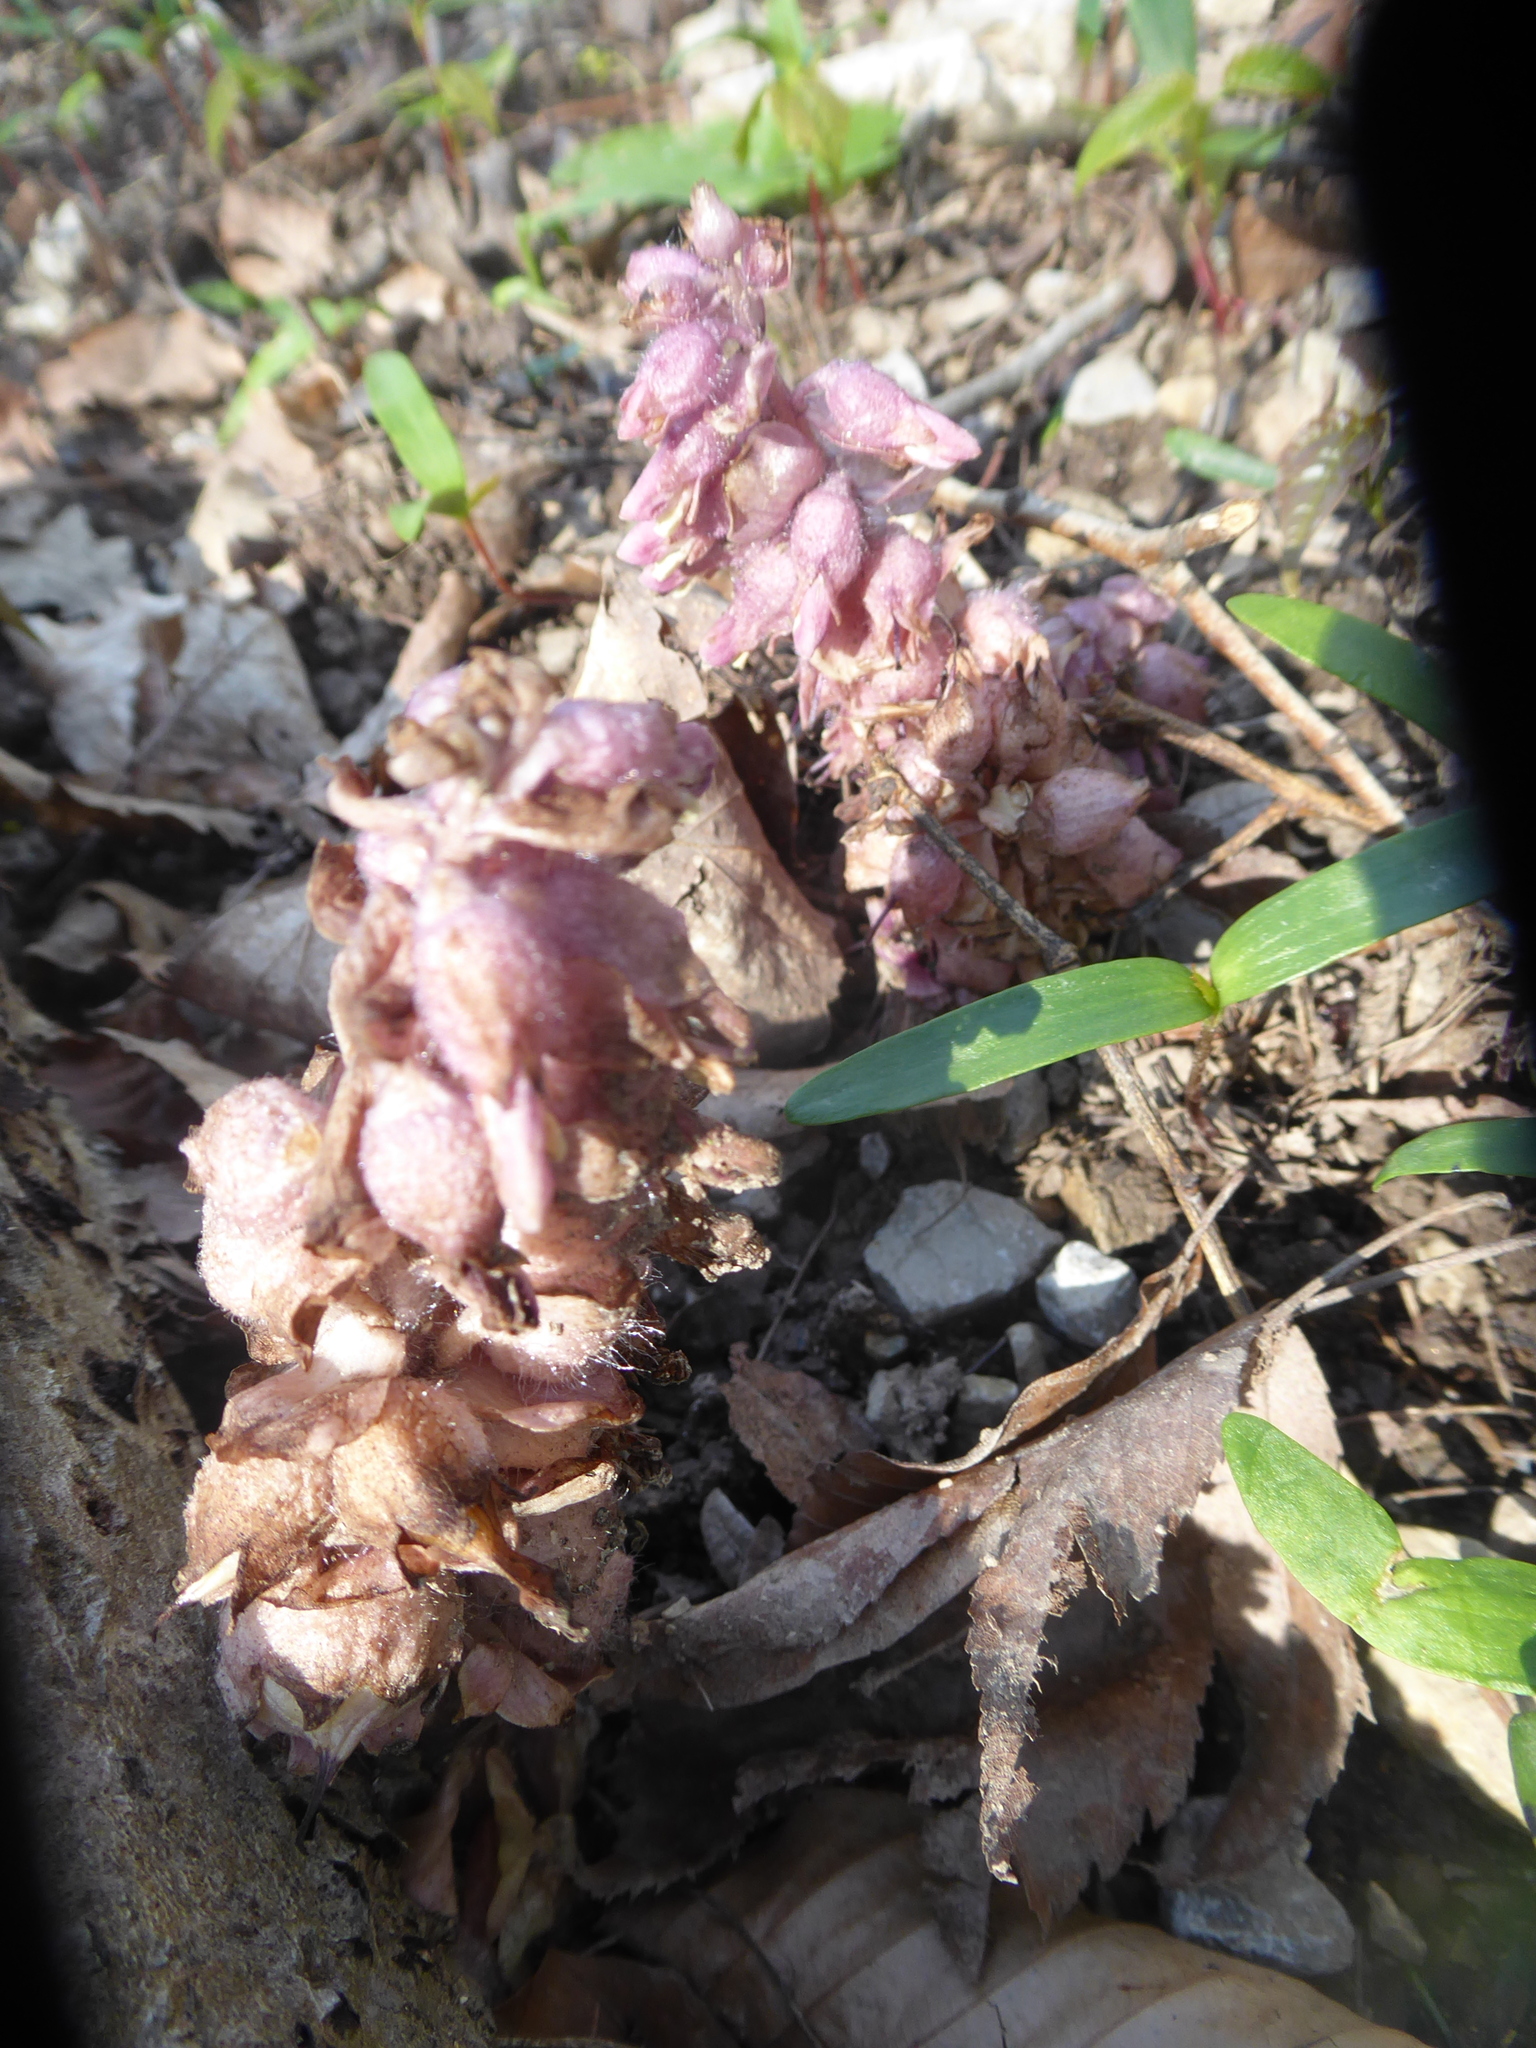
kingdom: Plantae
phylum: Tracheophyta
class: Magnoliopsida
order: Lamiales
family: Orobanchaceae
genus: Lathraea
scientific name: Lathraea squamaria
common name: Toothwort
